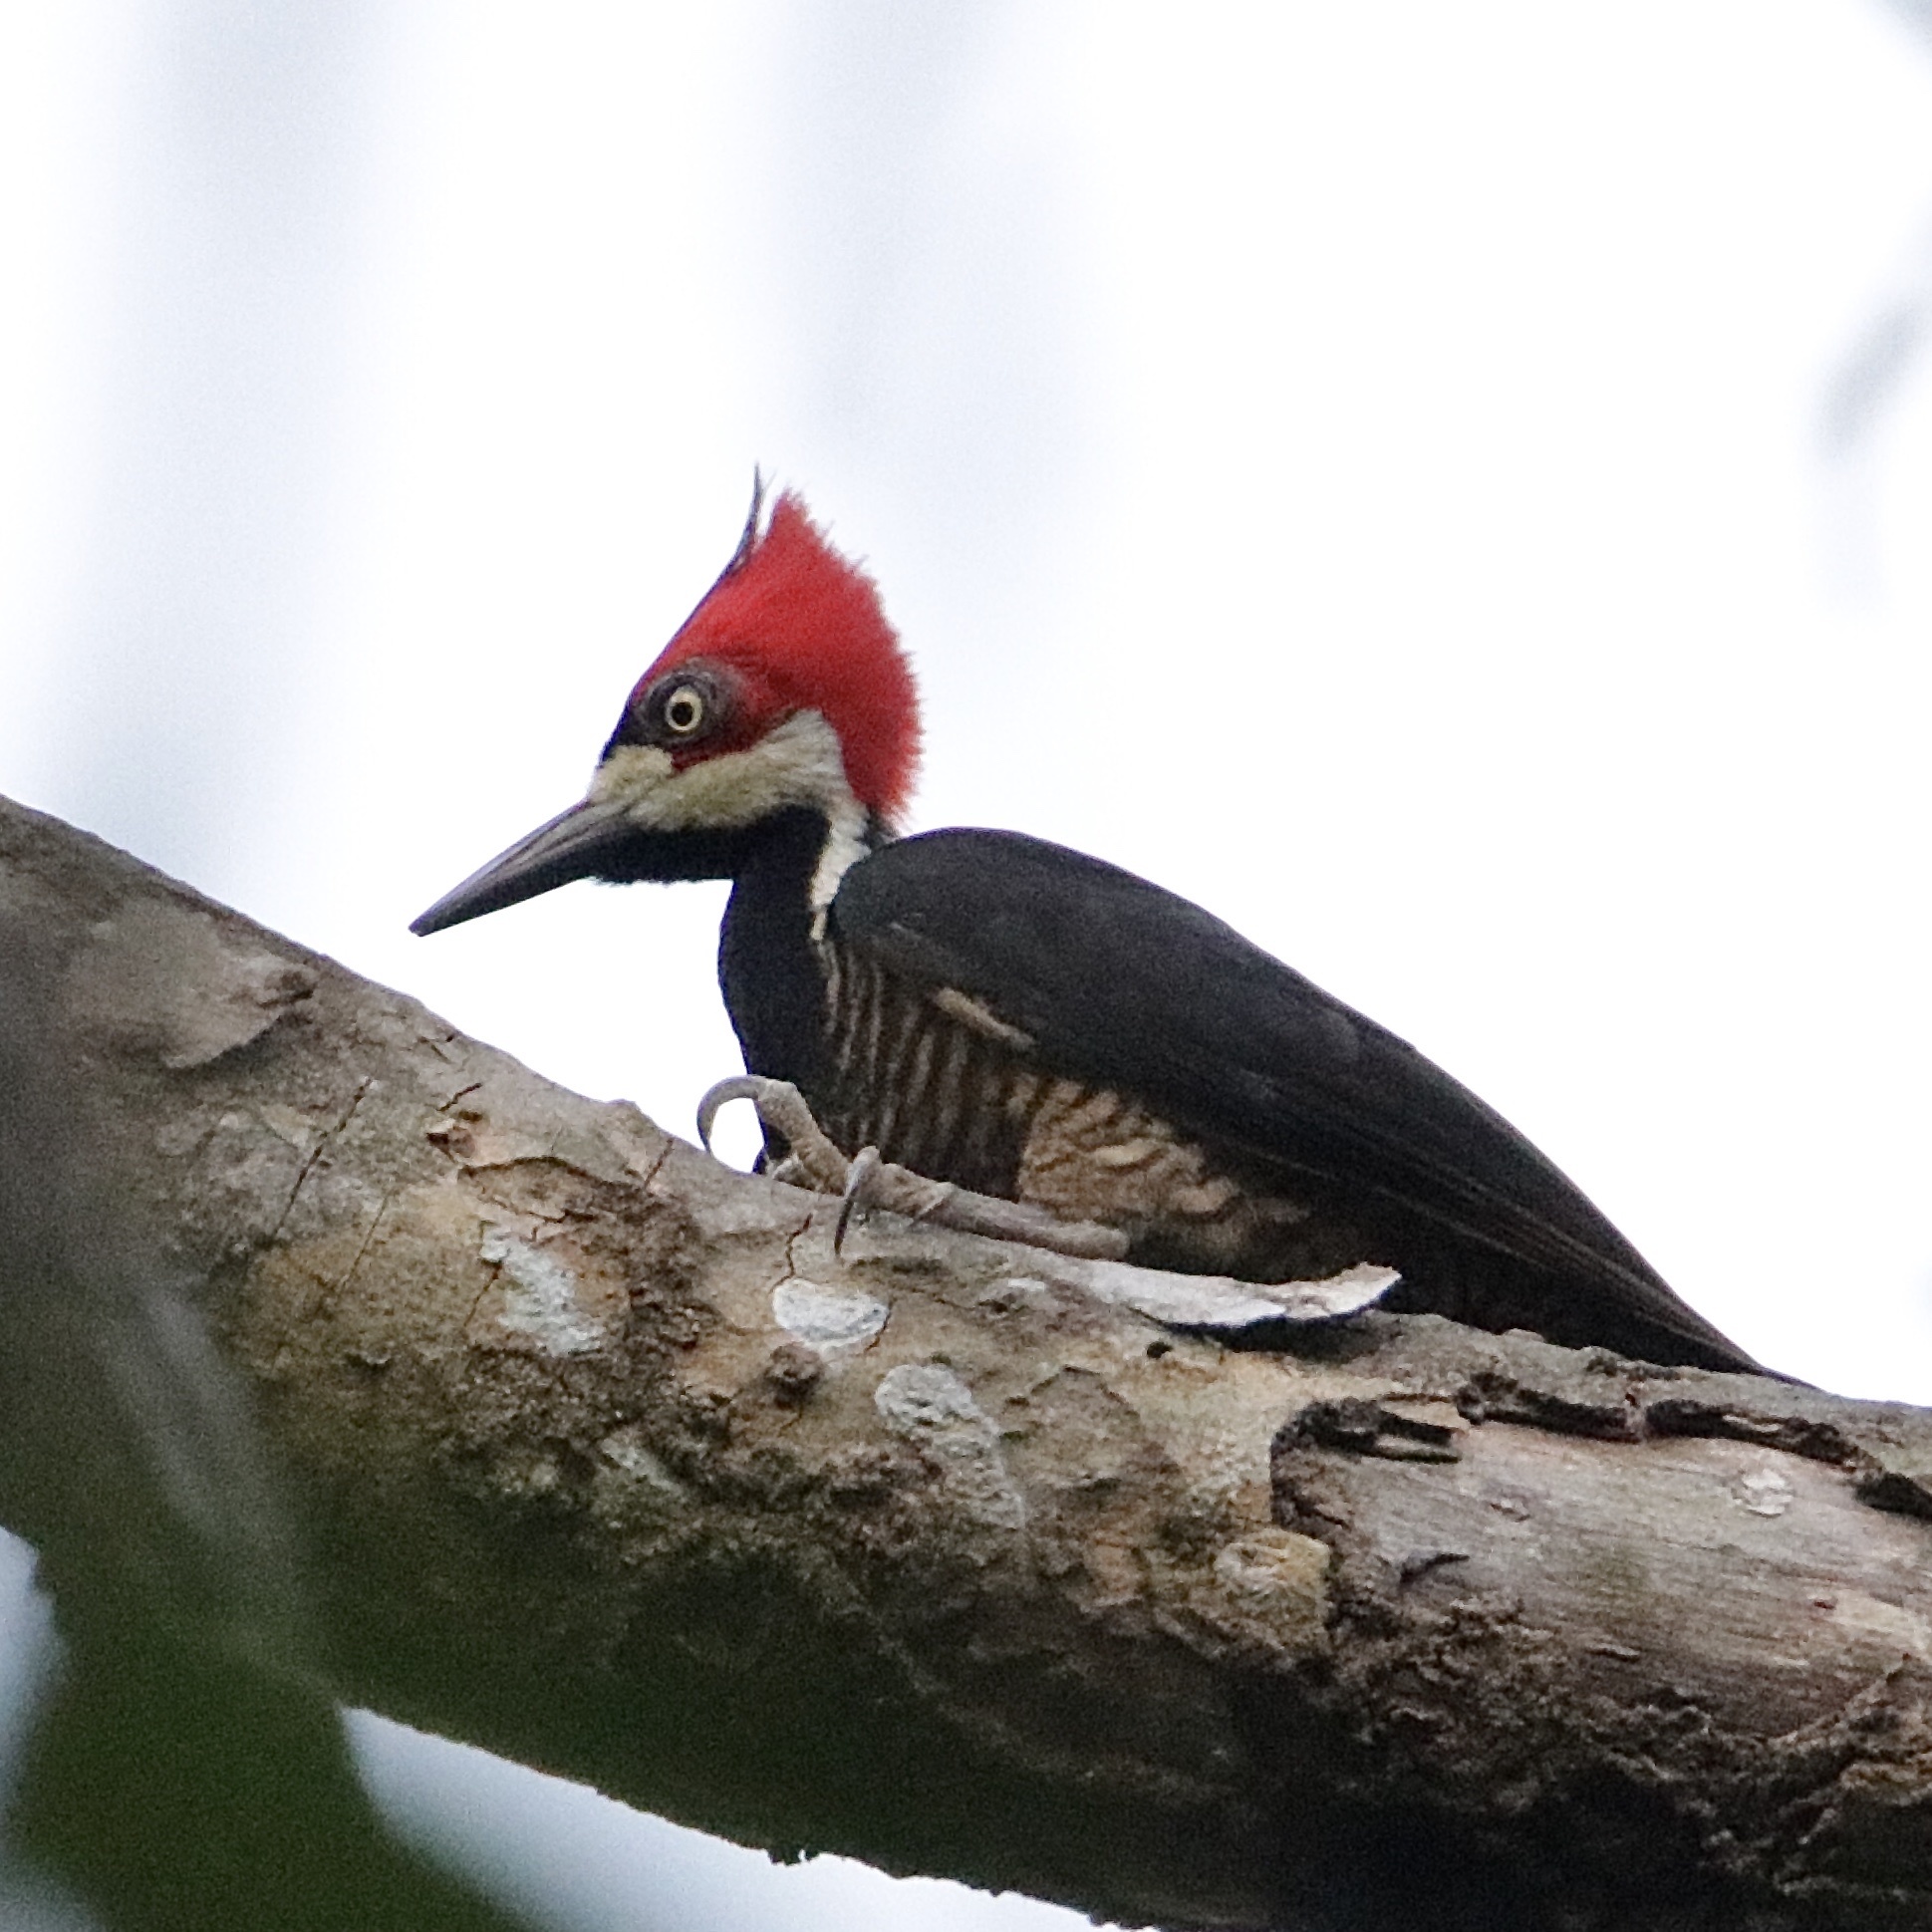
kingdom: Animalia
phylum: Chordata
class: Aves
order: Piciformes
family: Picidae
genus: Campephilus
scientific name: Campephilus melanoleucos
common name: Crimson-crested woodpecker
